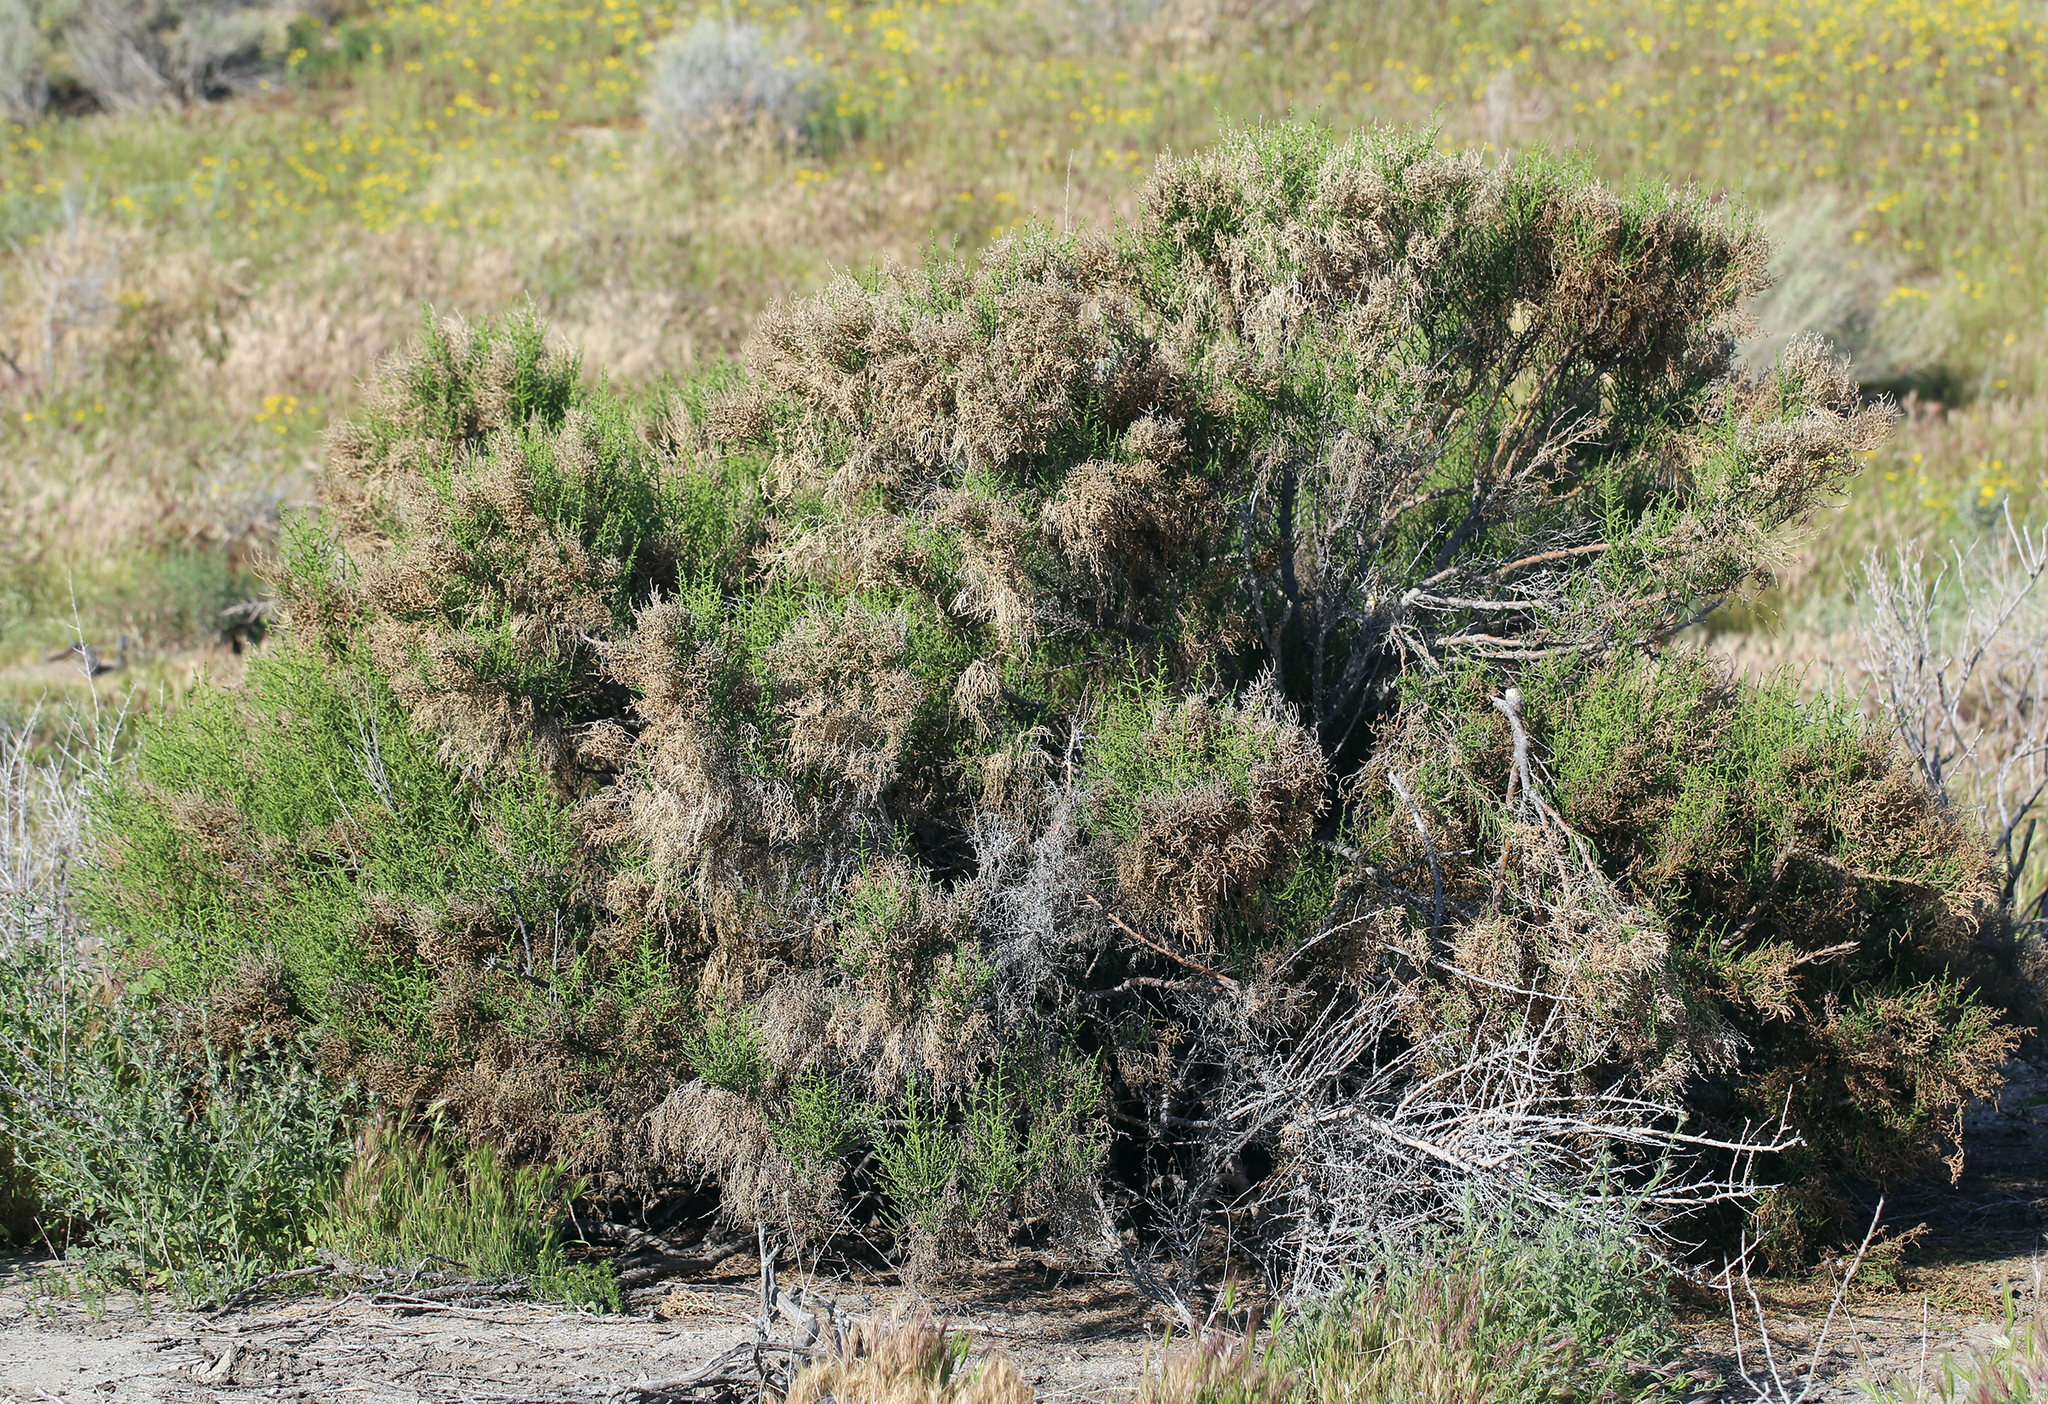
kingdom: Plantae
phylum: Tracheophyta
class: Magnoliopsida
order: Caryophyllales
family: Amaranthaceae
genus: Allenrolfea
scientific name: Allenrolfea occidentalis
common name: Iodine-bush
